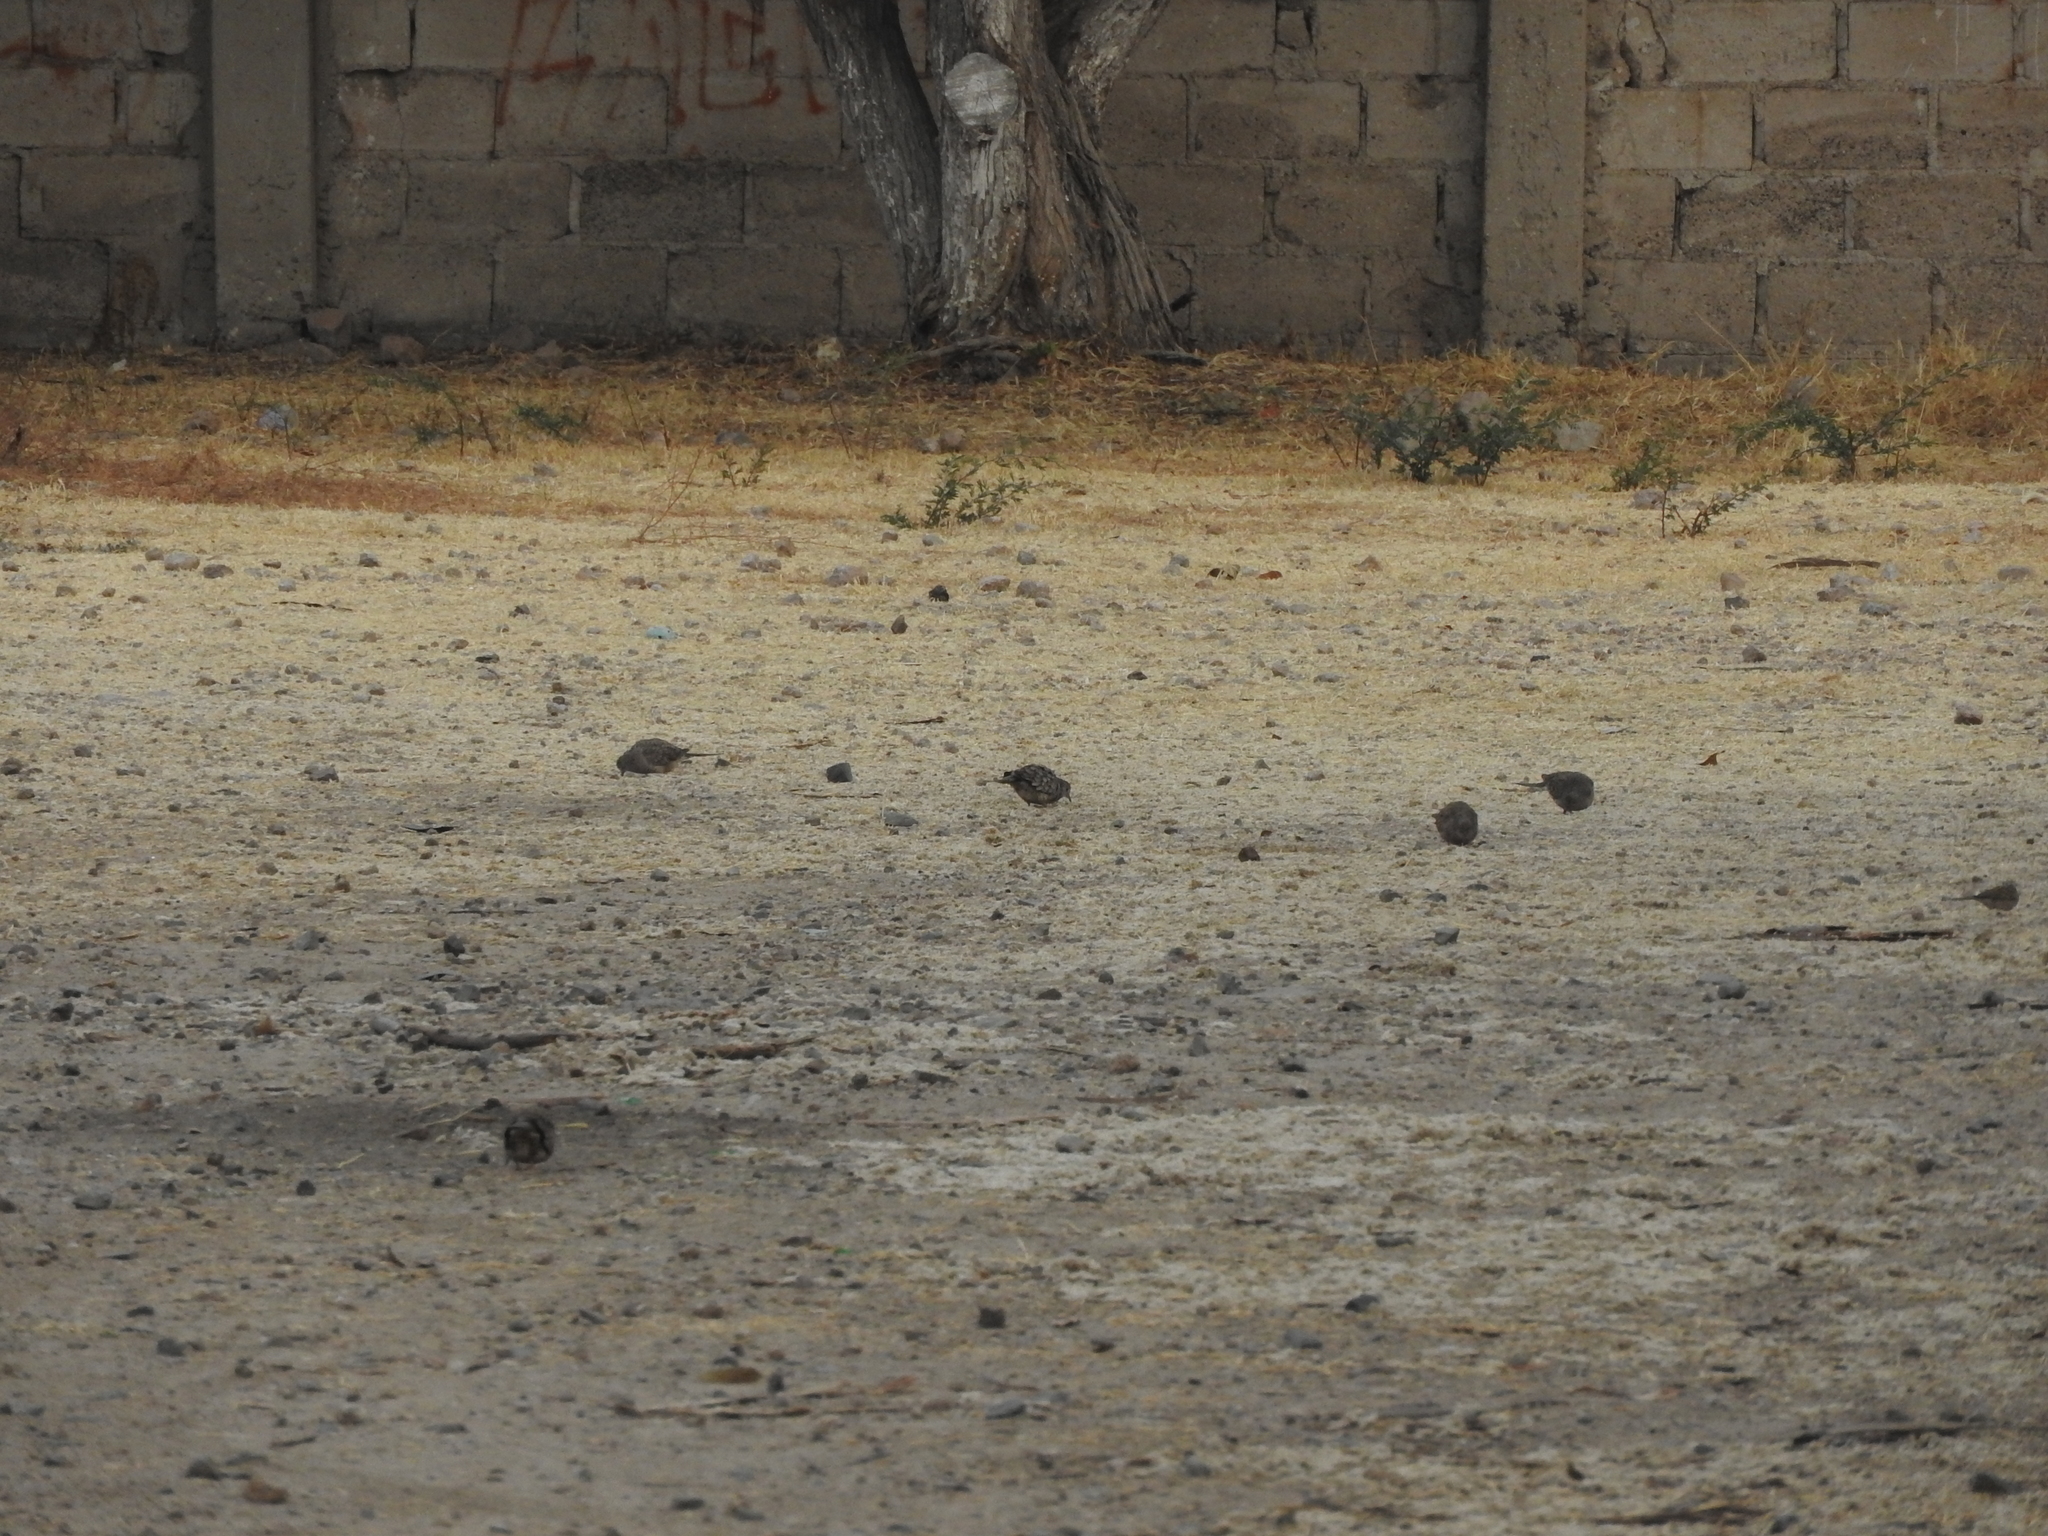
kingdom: Animalia
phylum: Chordata
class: Aves
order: Columbiformes
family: Columbidae
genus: Columbina
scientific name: Columbina inca
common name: Inca dove
